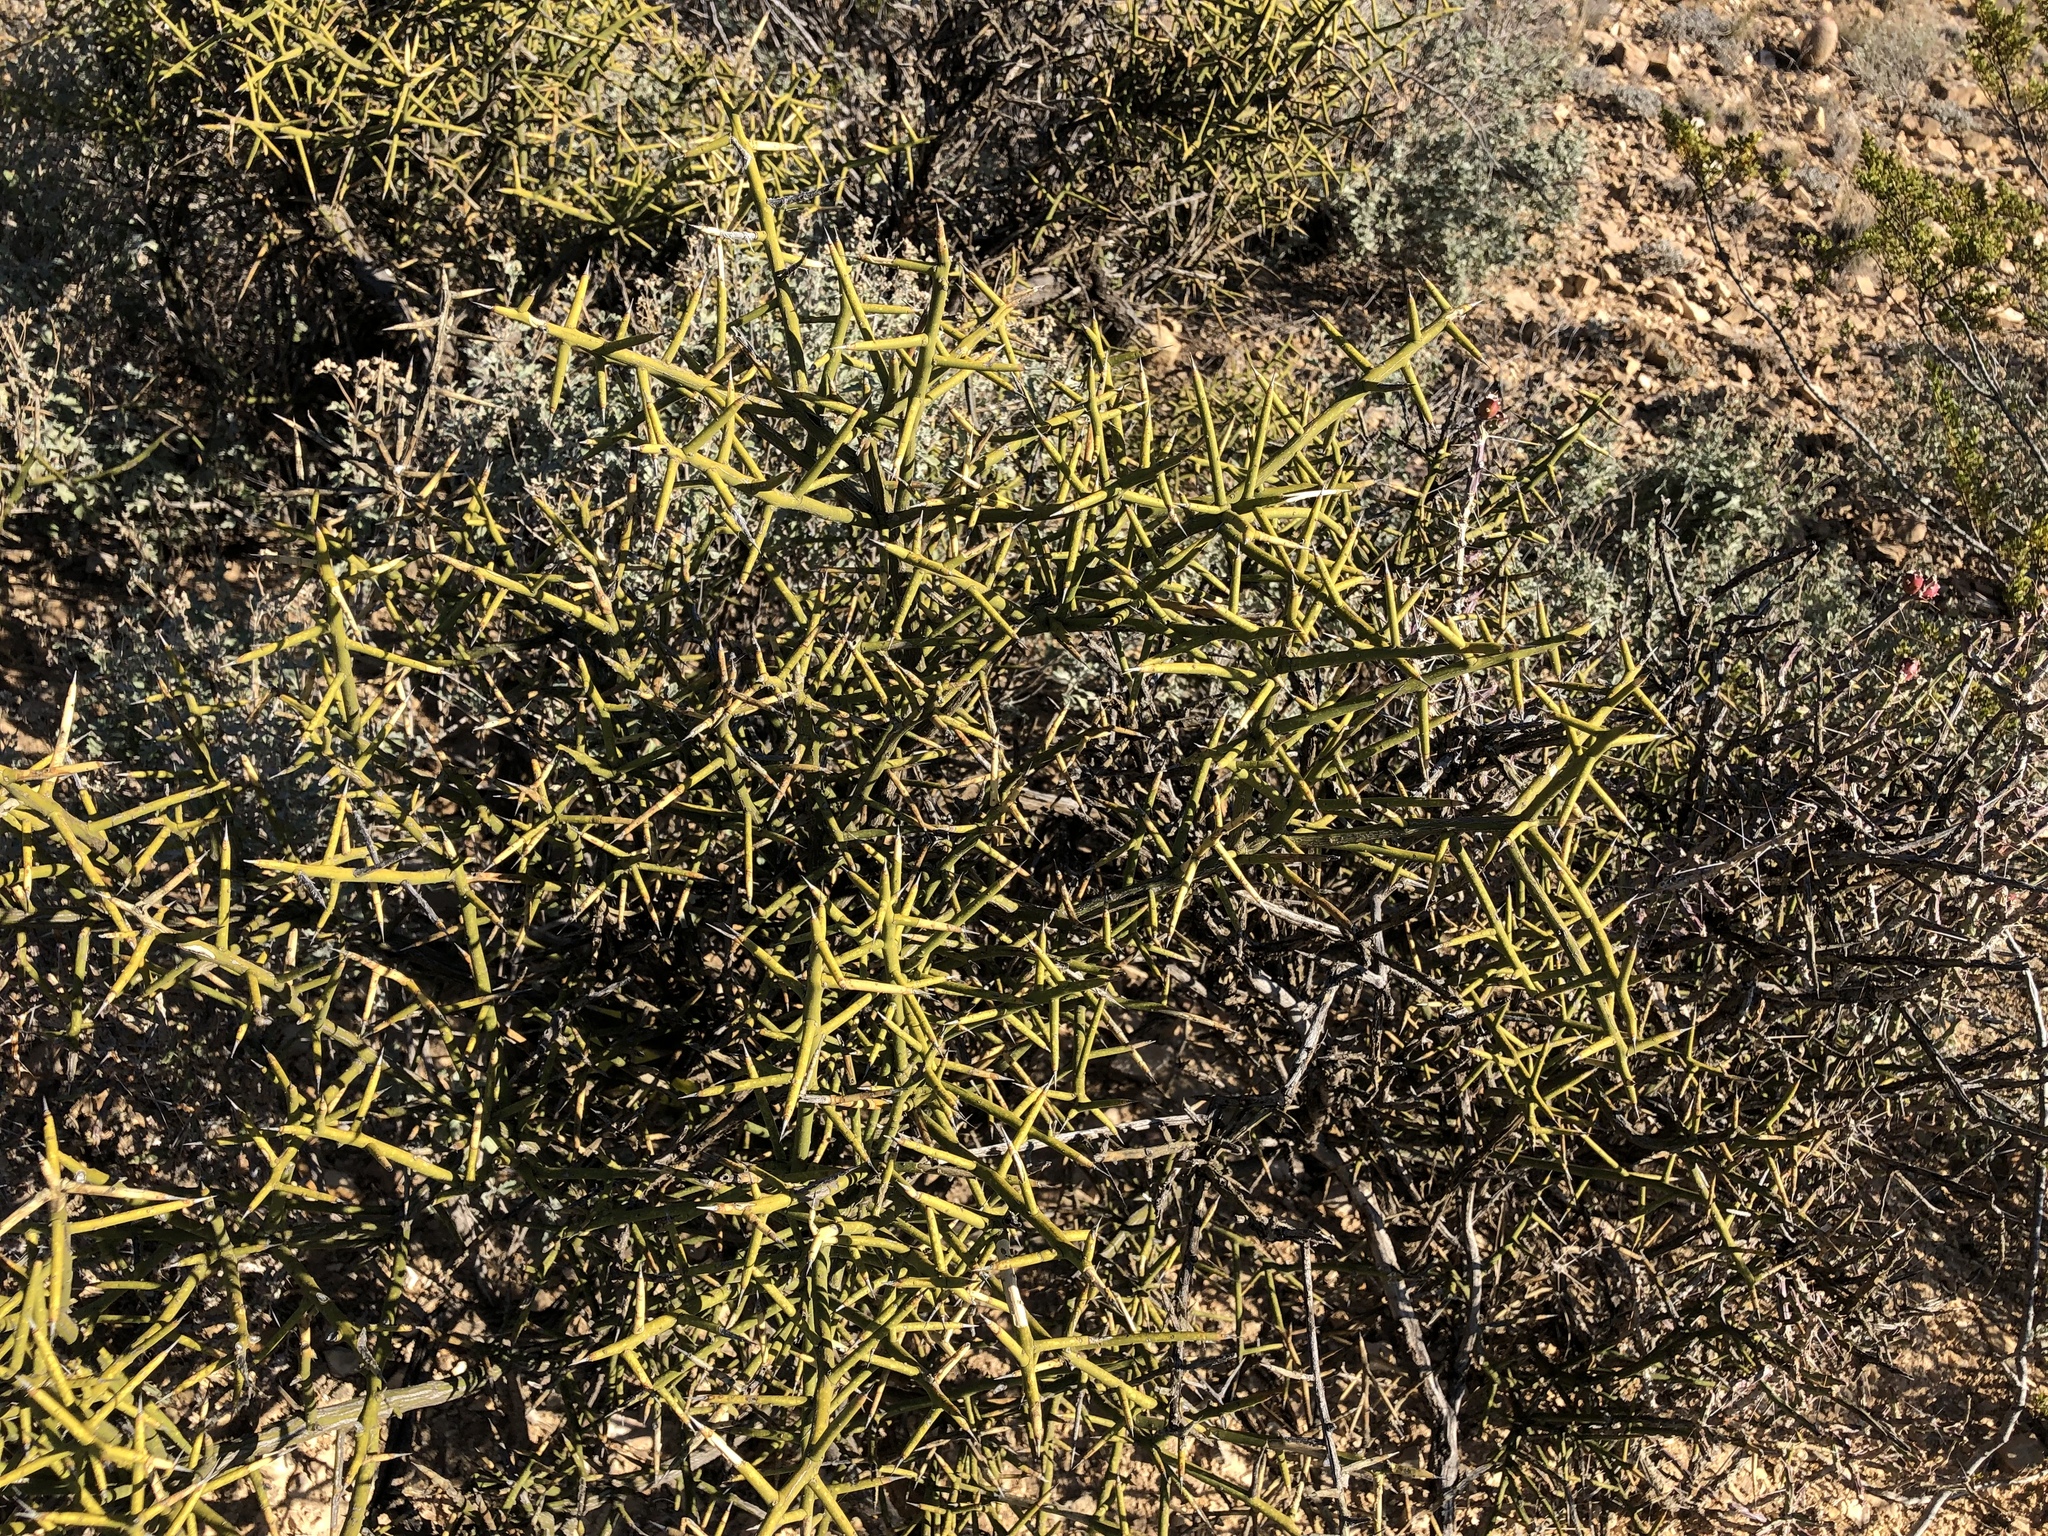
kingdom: Plantae
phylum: Tracheophyta
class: Magnoliopsida
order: Brassicales
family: Koeberliniaceae
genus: Koeberlinia
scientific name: Koeberlinia spinosa
